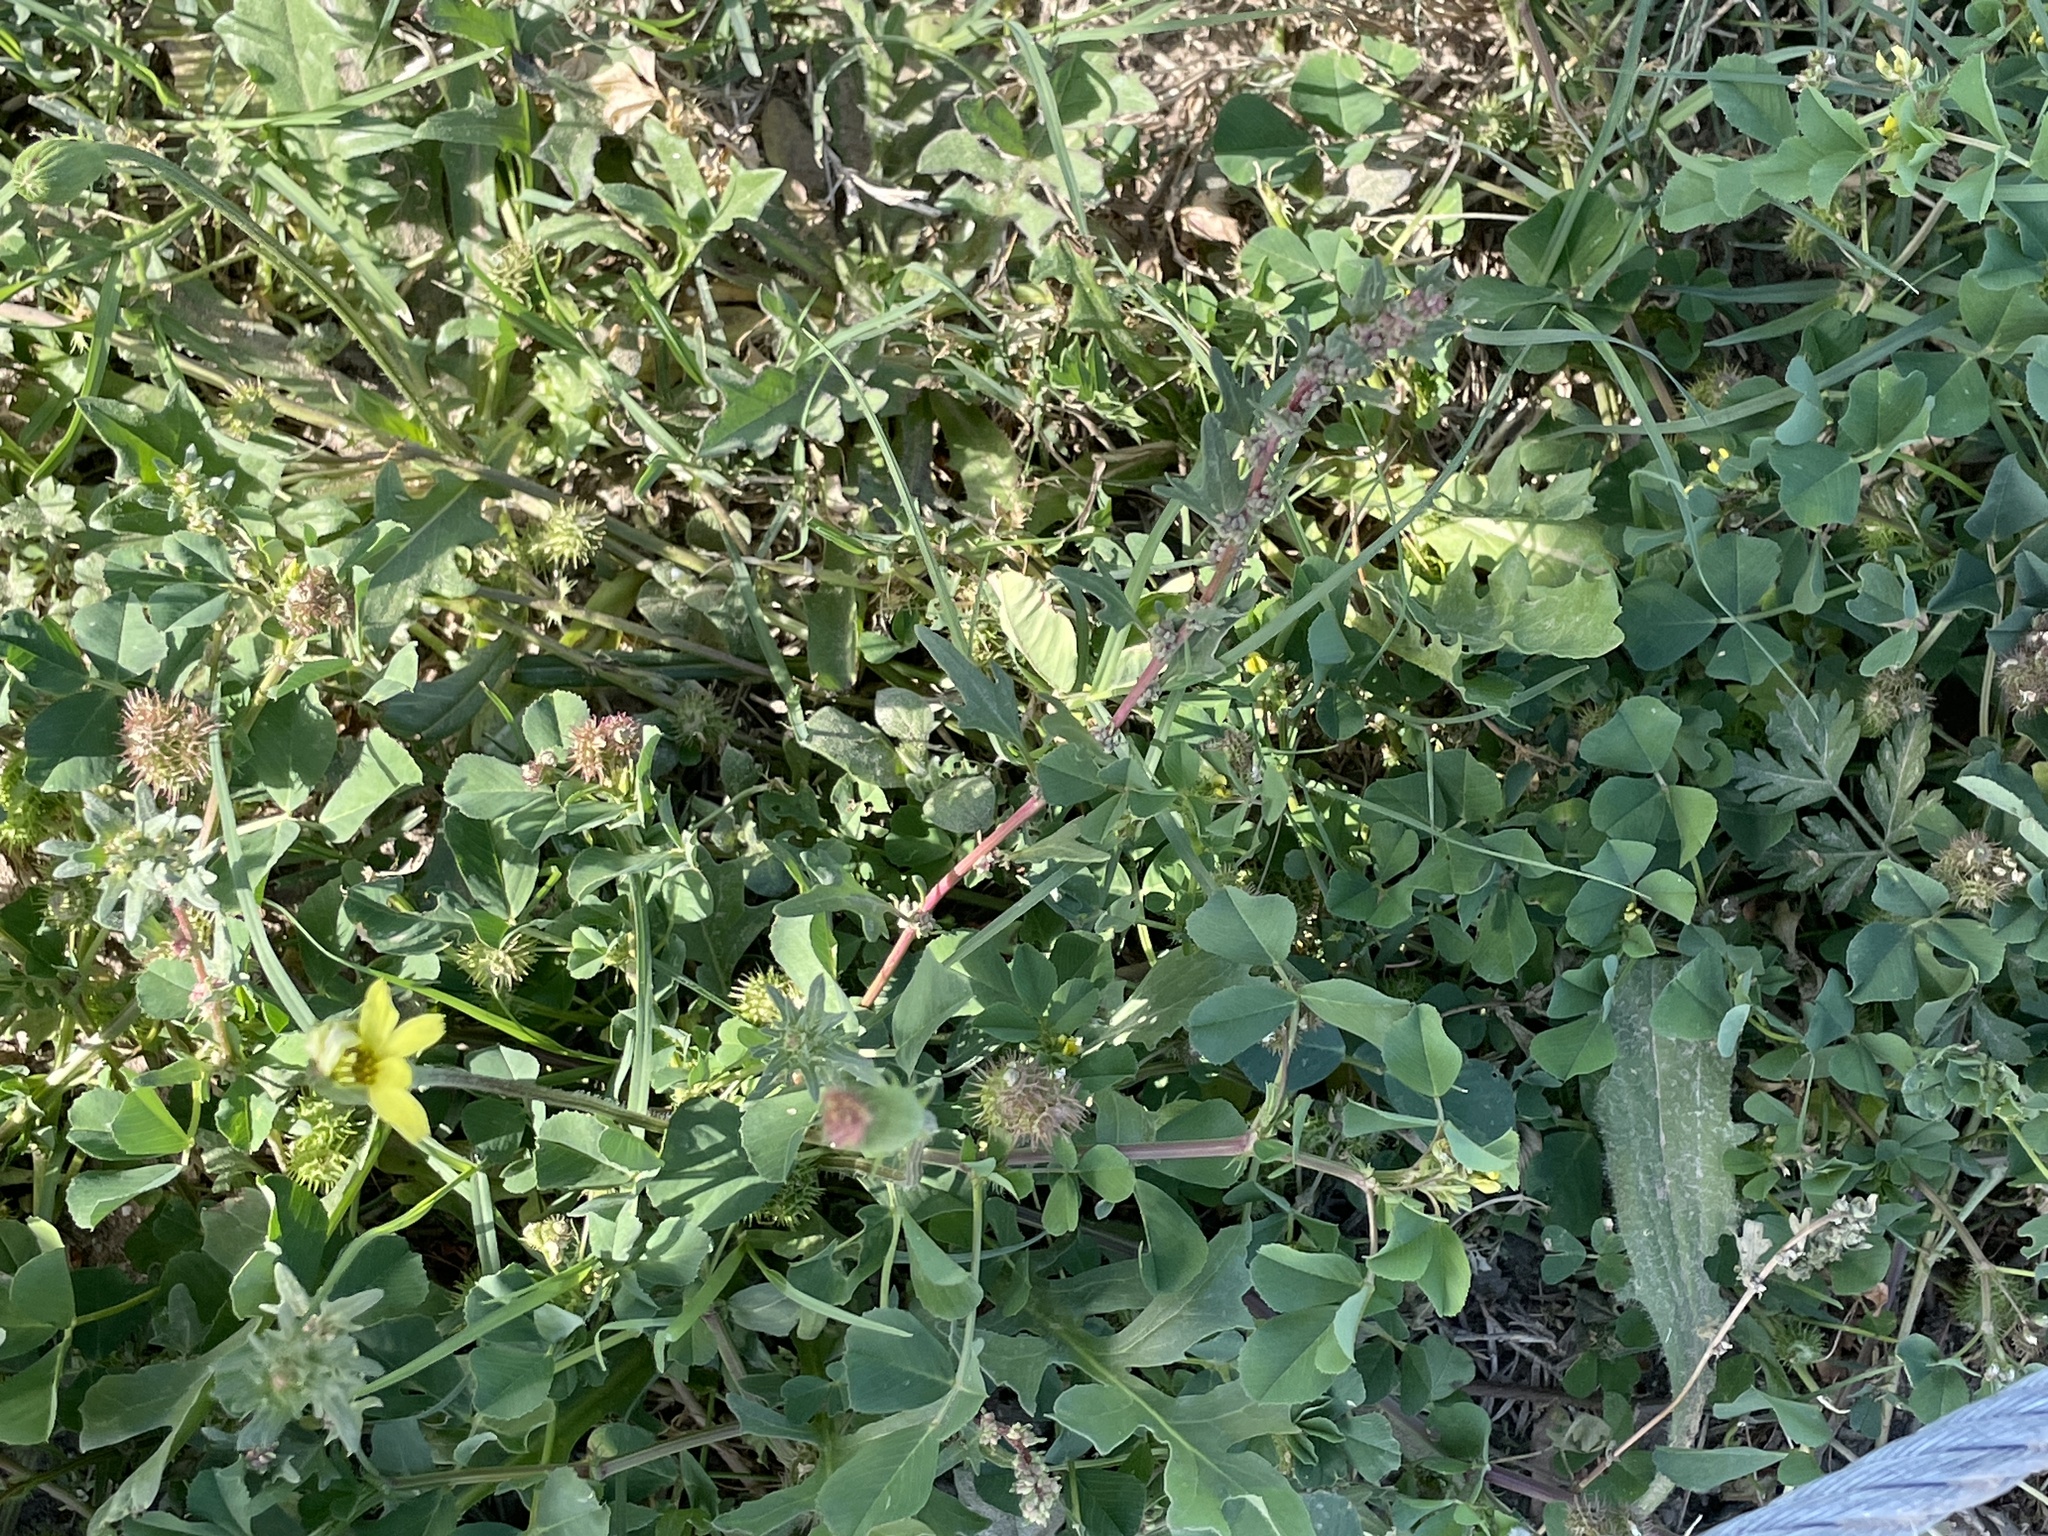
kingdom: Plantae
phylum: Tracheophyta
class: Magnoliopsida
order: Caryophyllales
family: Amaranthaceae
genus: Blitum
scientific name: Blitum nuttallianum
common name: Poverty-weed
